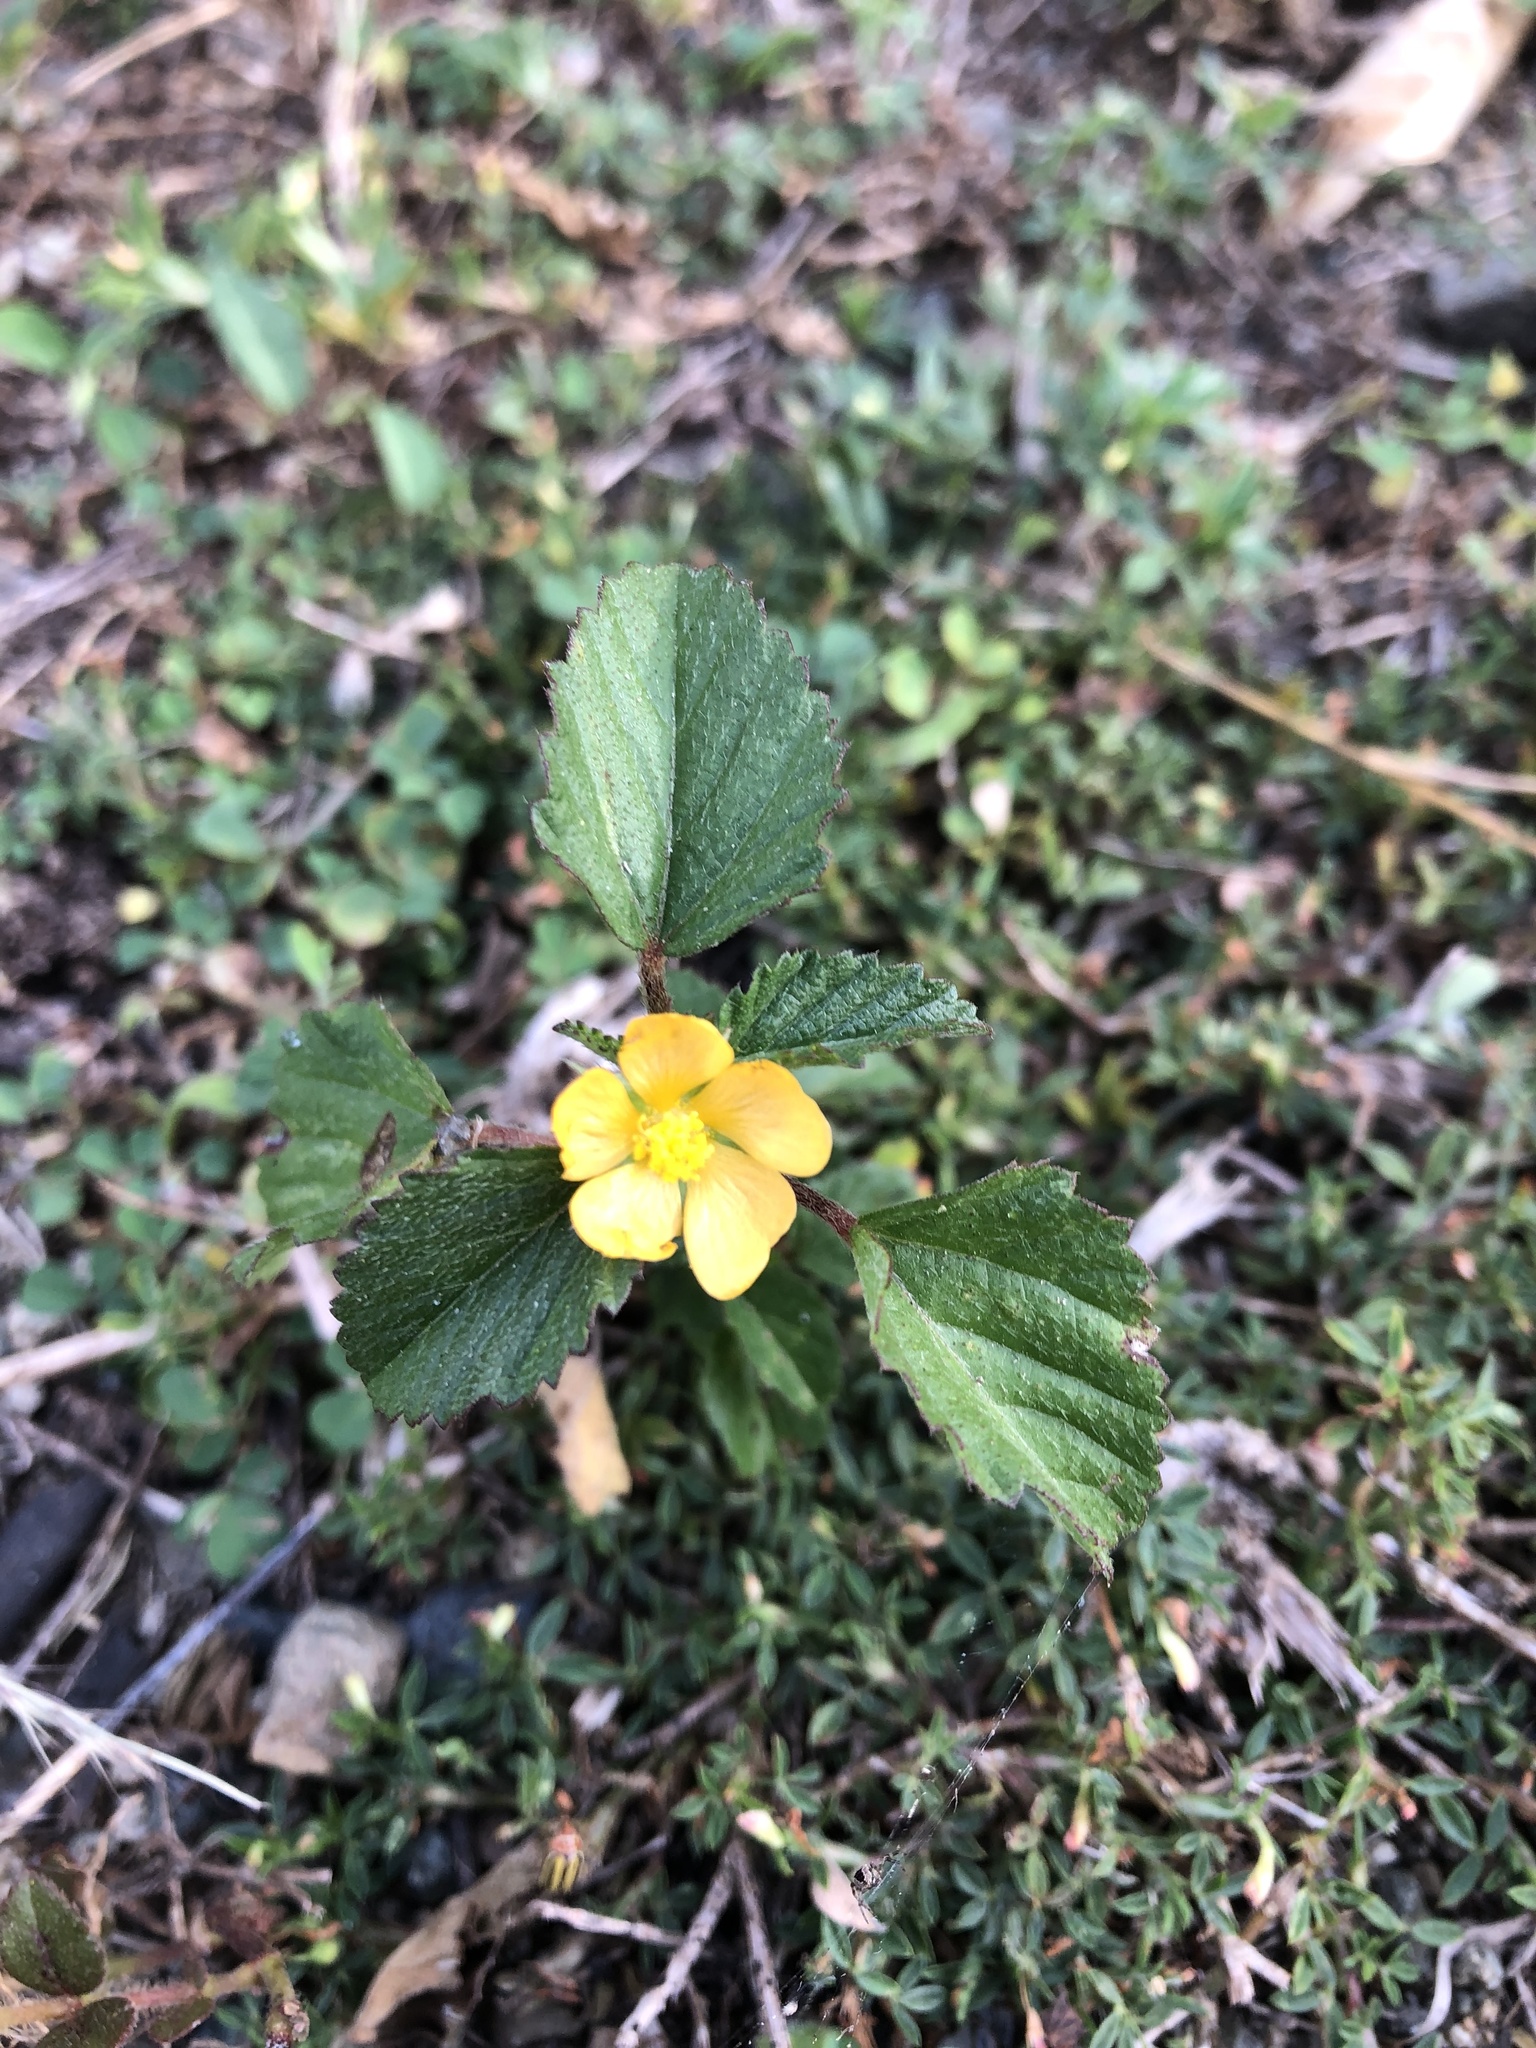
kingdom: Plantae
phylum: Tracheophyta
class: Magnoliopsida
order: Malvales
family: Malvaceae
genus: Malvastrum
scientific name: Malvastrum coromandelianum
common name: Threelobe false mallow
